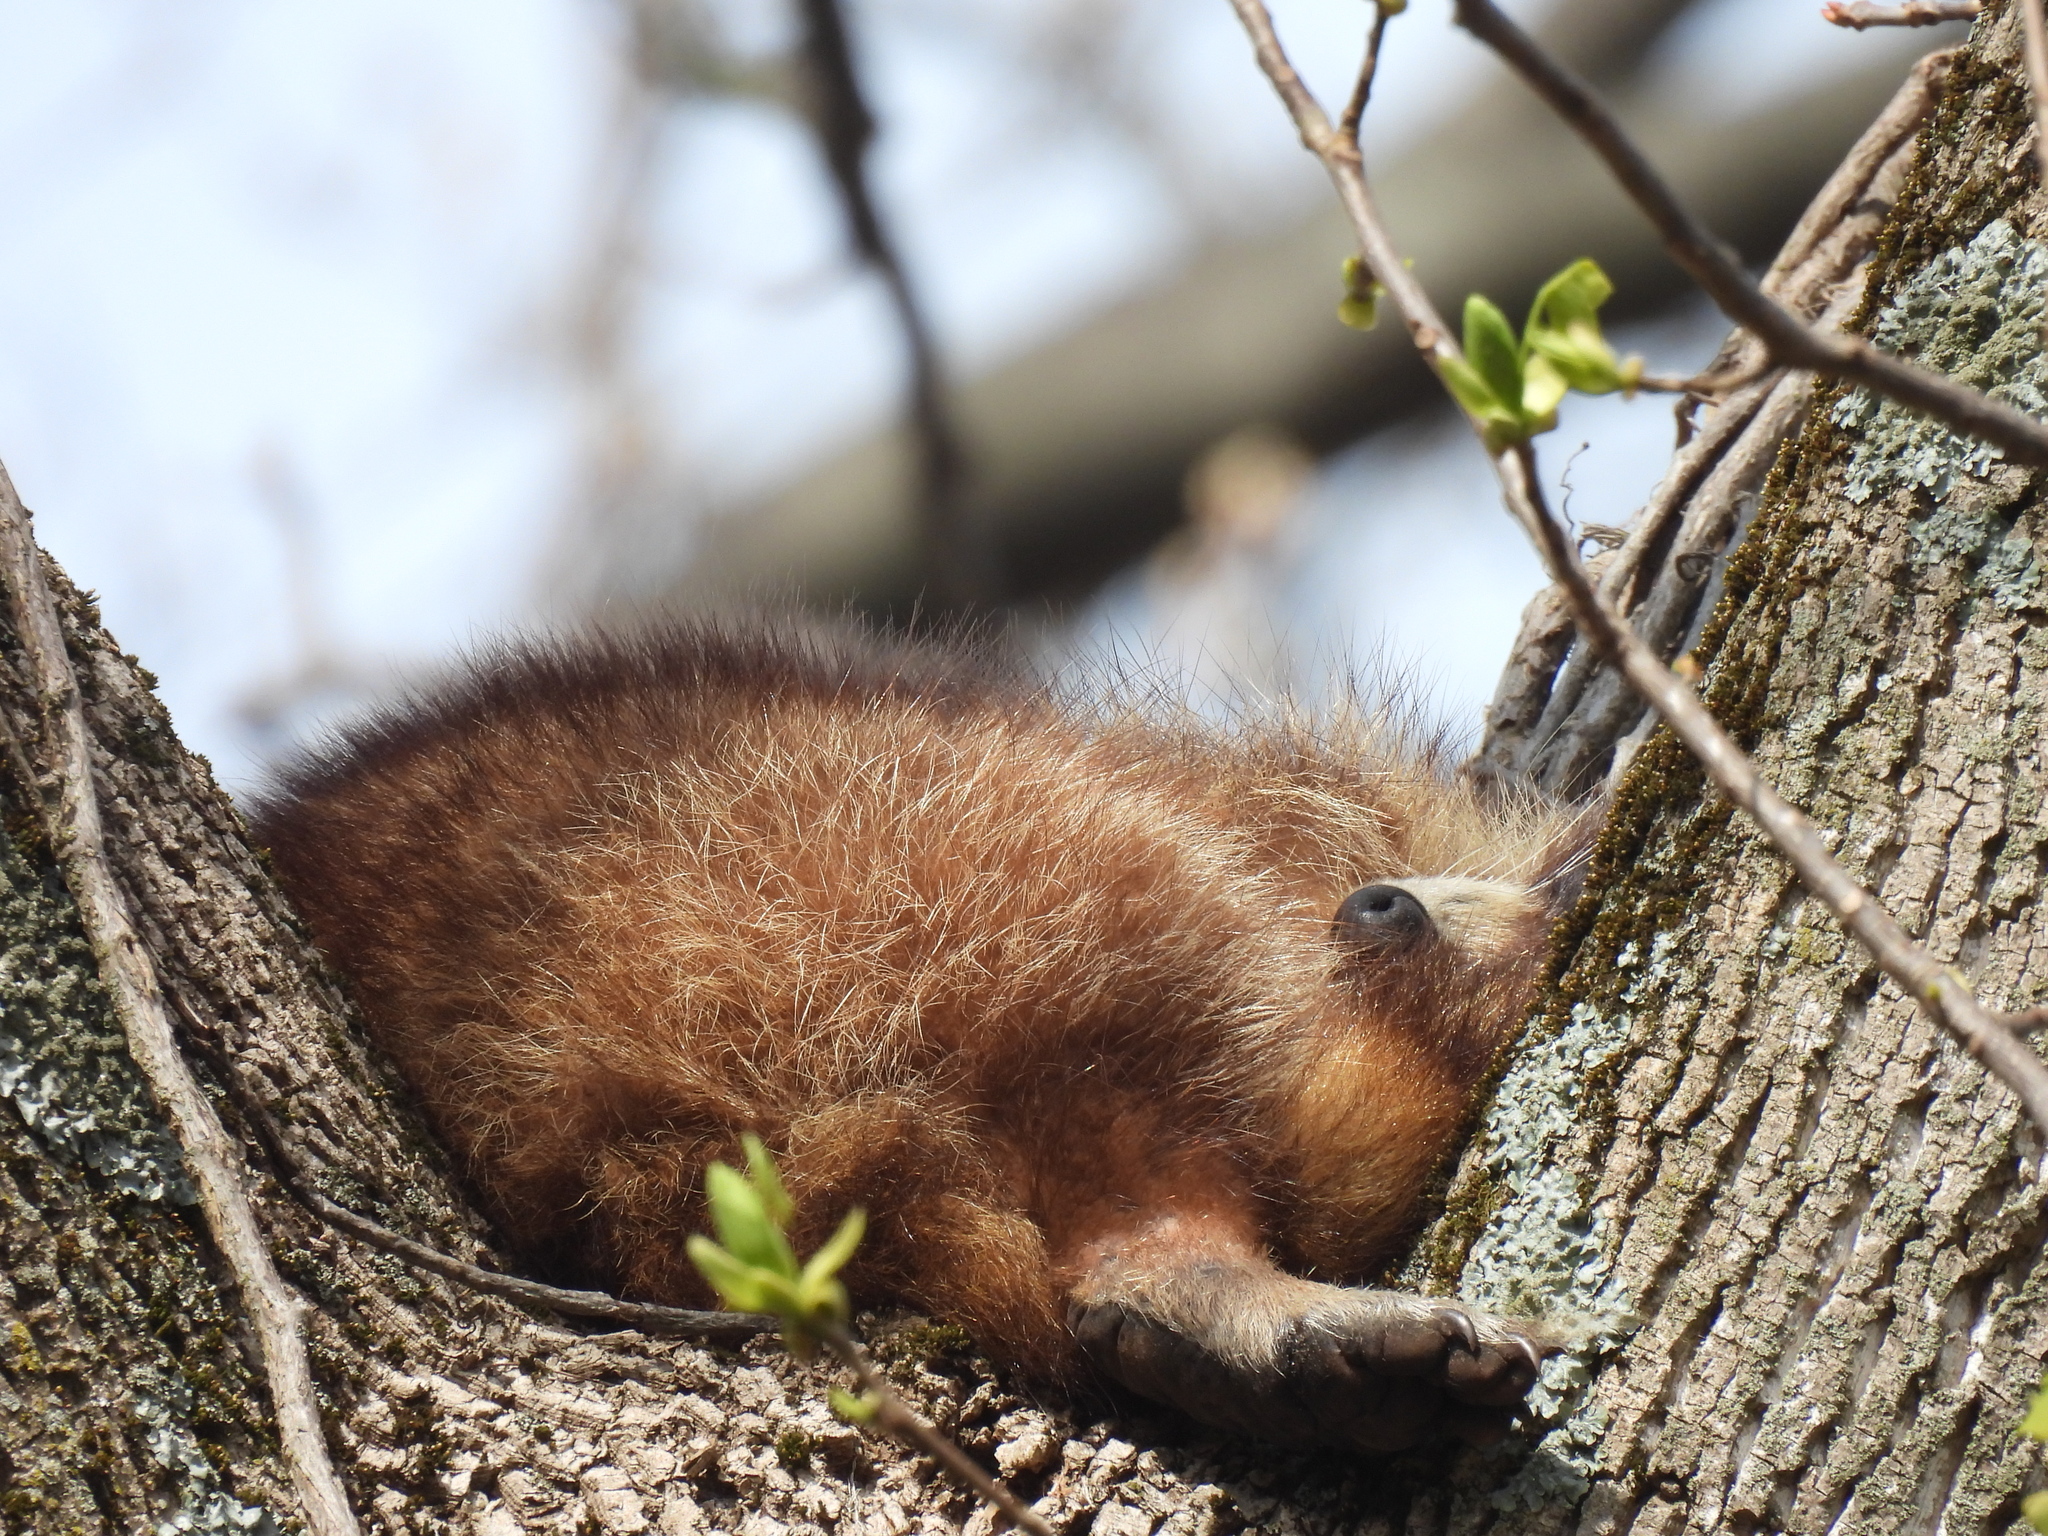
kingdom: Animalia
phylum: Chordata
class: Mammalia
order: Carnivora
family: Procyonidae
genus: Procyon
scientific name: Procyon lotor
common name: Raccoon
